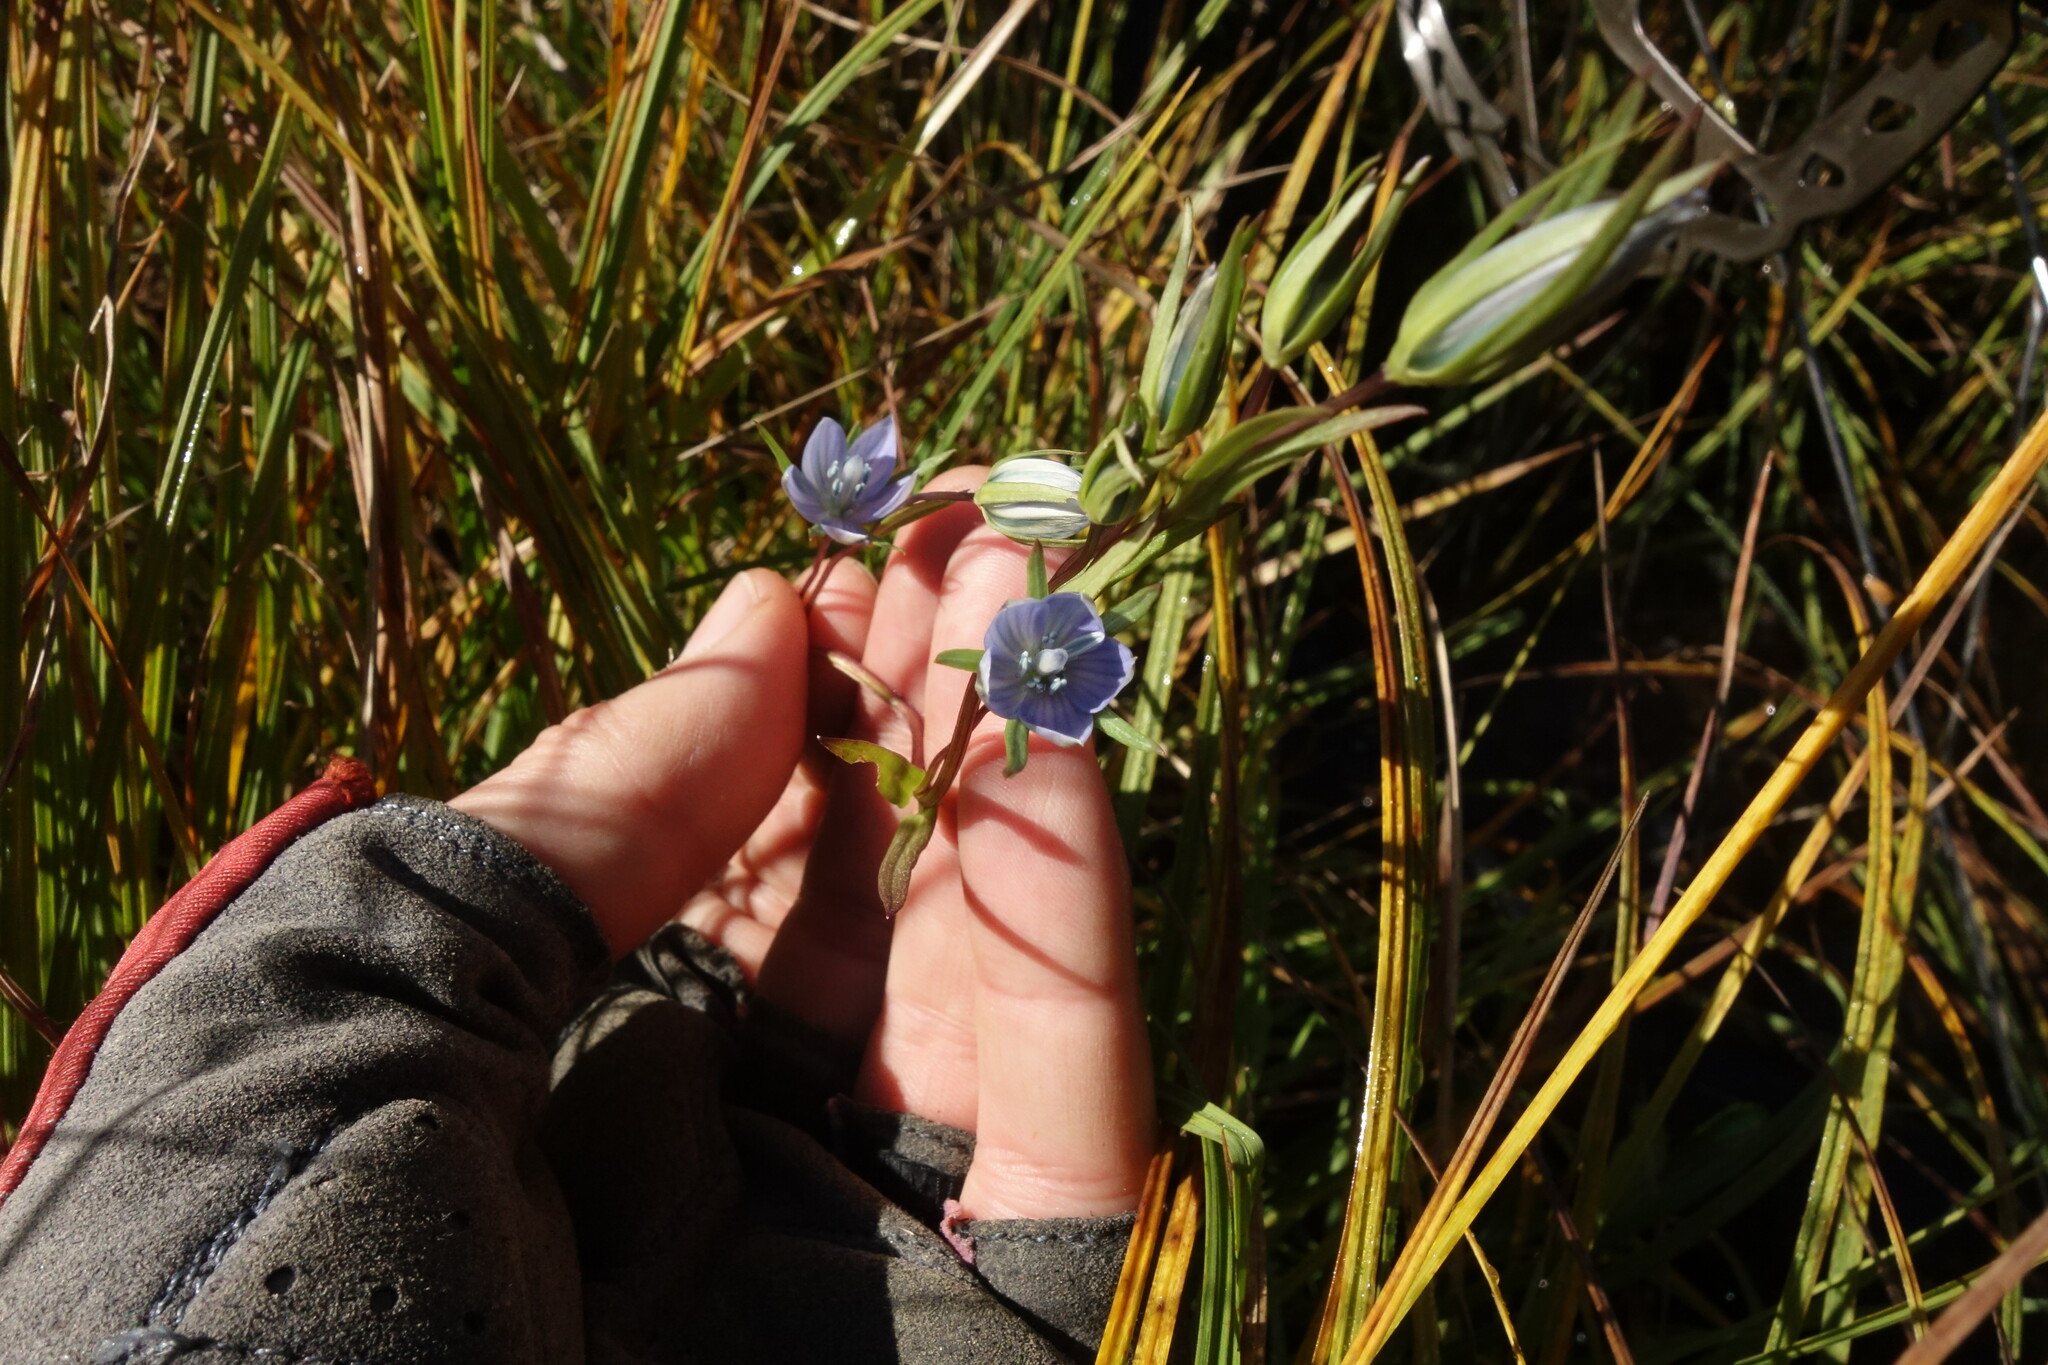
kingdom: Plantae
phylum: Tracheophyta
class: Magnoliopsida
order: Gentianales
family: Gentianaceae
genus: Lomatogonium
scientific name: Lomatogonium rotatum
